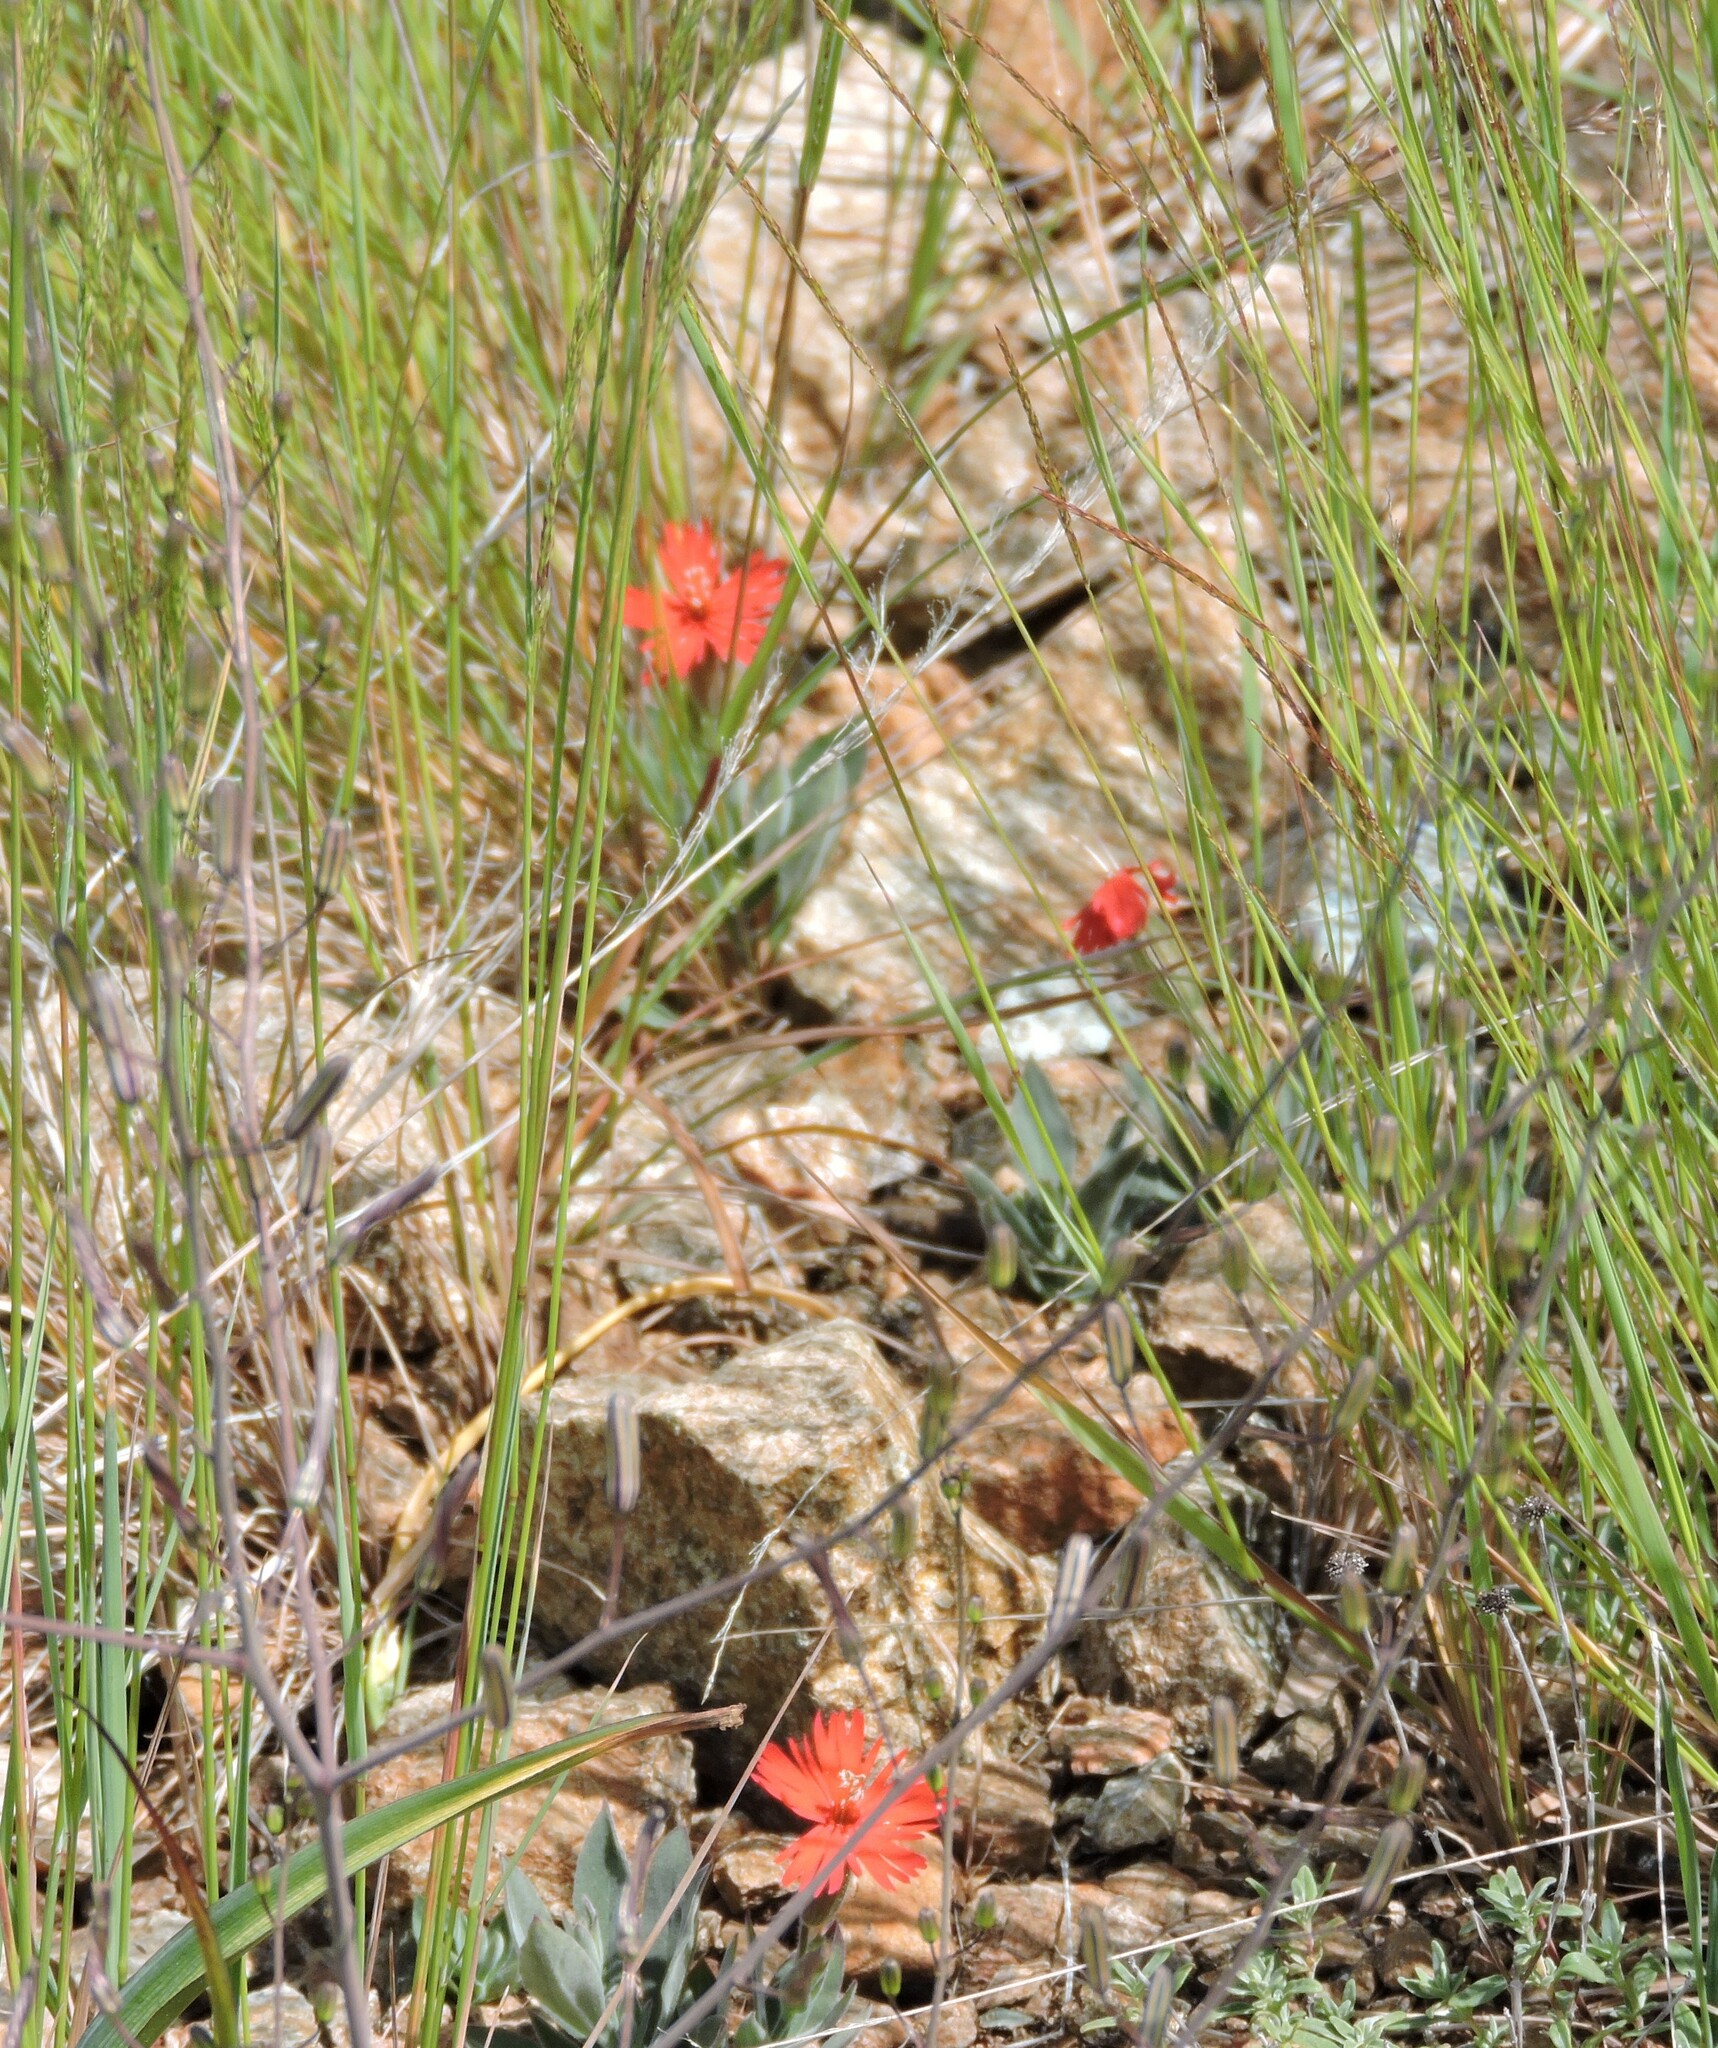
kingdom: Plantae
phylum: Tracheophyta
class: Magnoliopsida
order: Caryophyllales
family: Caryophyllaceae
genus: Silene
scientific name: Silene laciniata
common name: Indian-pink
